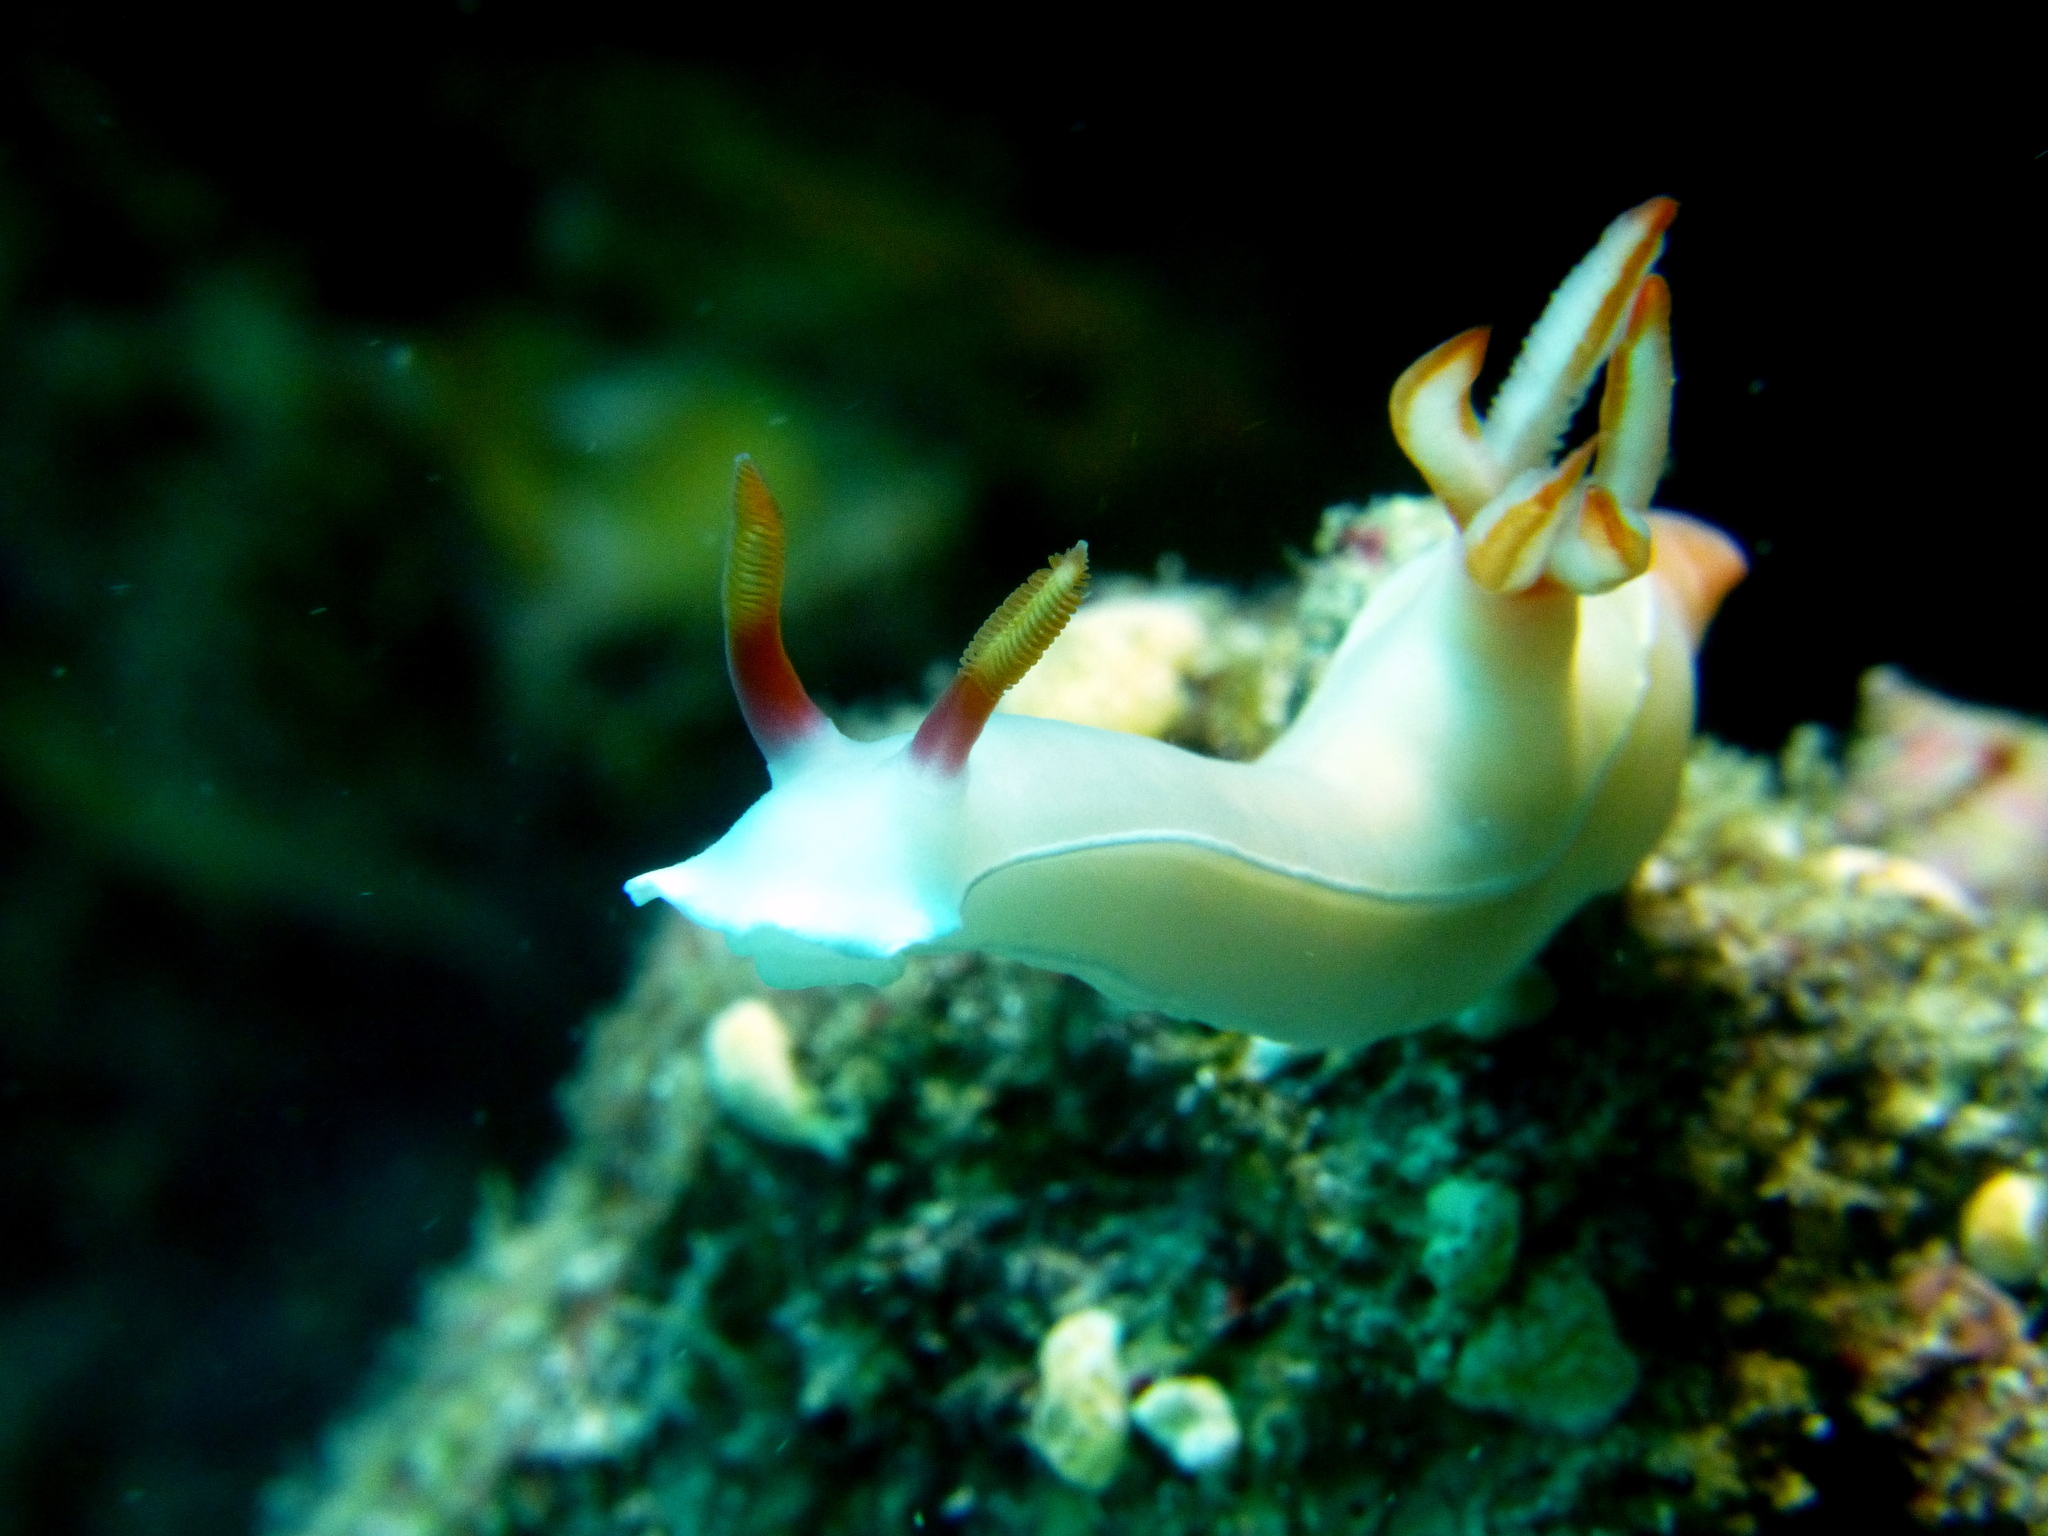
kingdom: Animalia
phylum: Mollusca
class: Gastropoda
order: Nudibranchia
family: Chromodorididae
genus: Hypselodoris
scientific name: Hypselodoris bullockii
